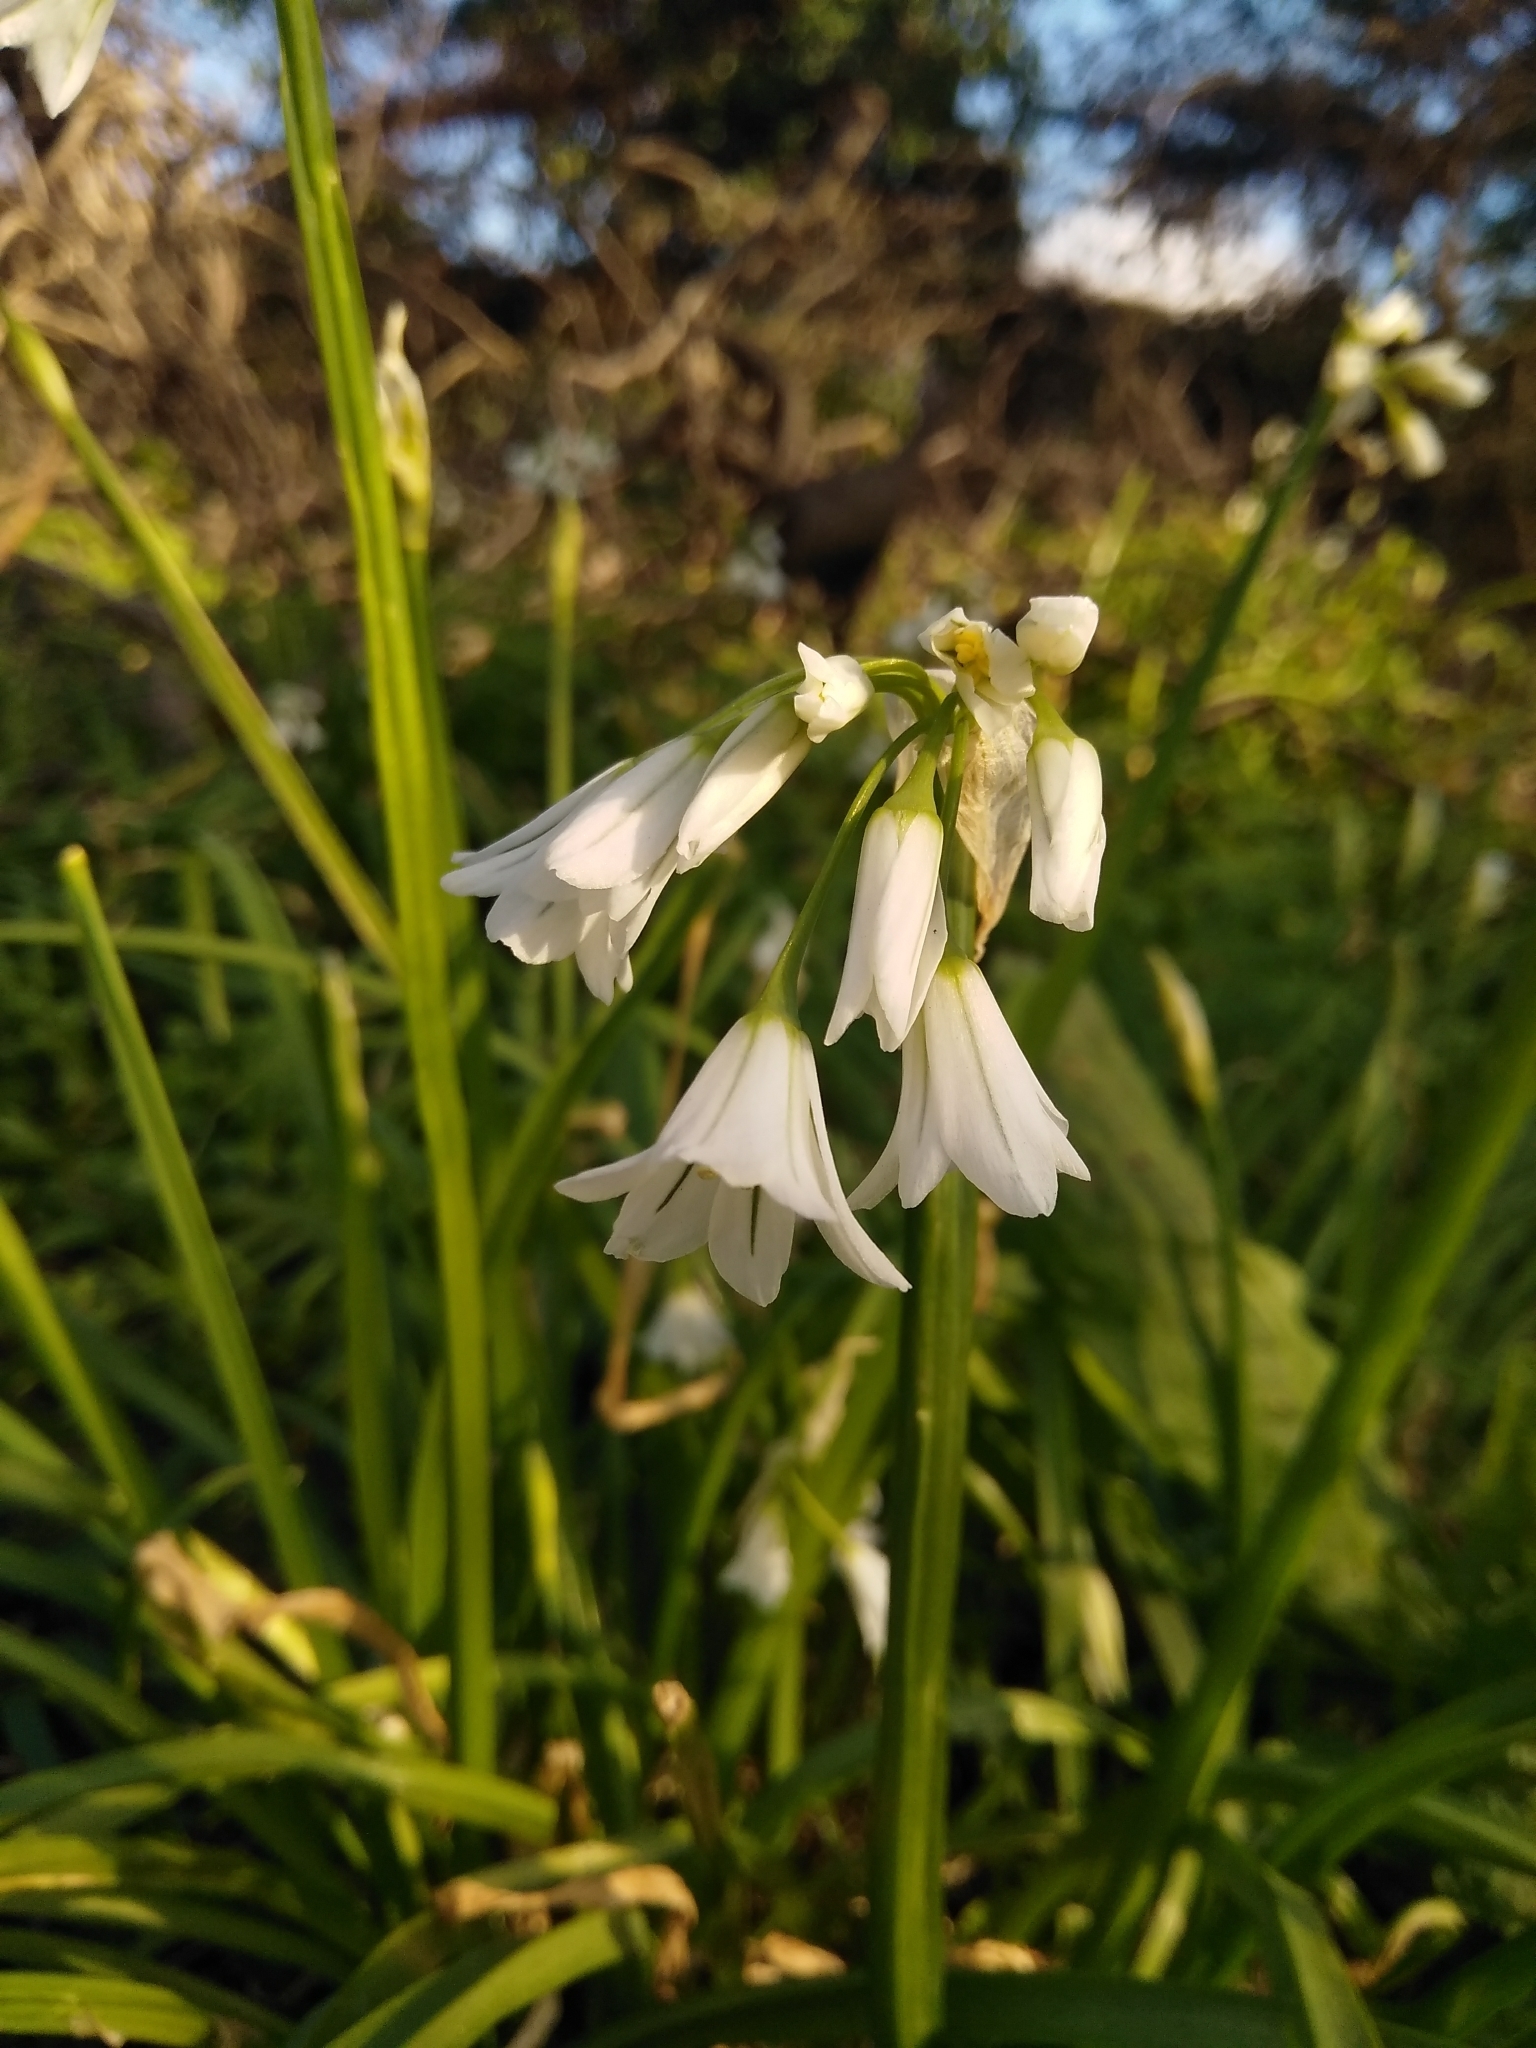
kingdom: Plantae
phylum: Tracheophyta
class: Liliopsida
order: Asparagales
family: Amaryllidaceae
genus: Allium
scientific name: Allium triquetrum
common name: Three-cornered garlic
